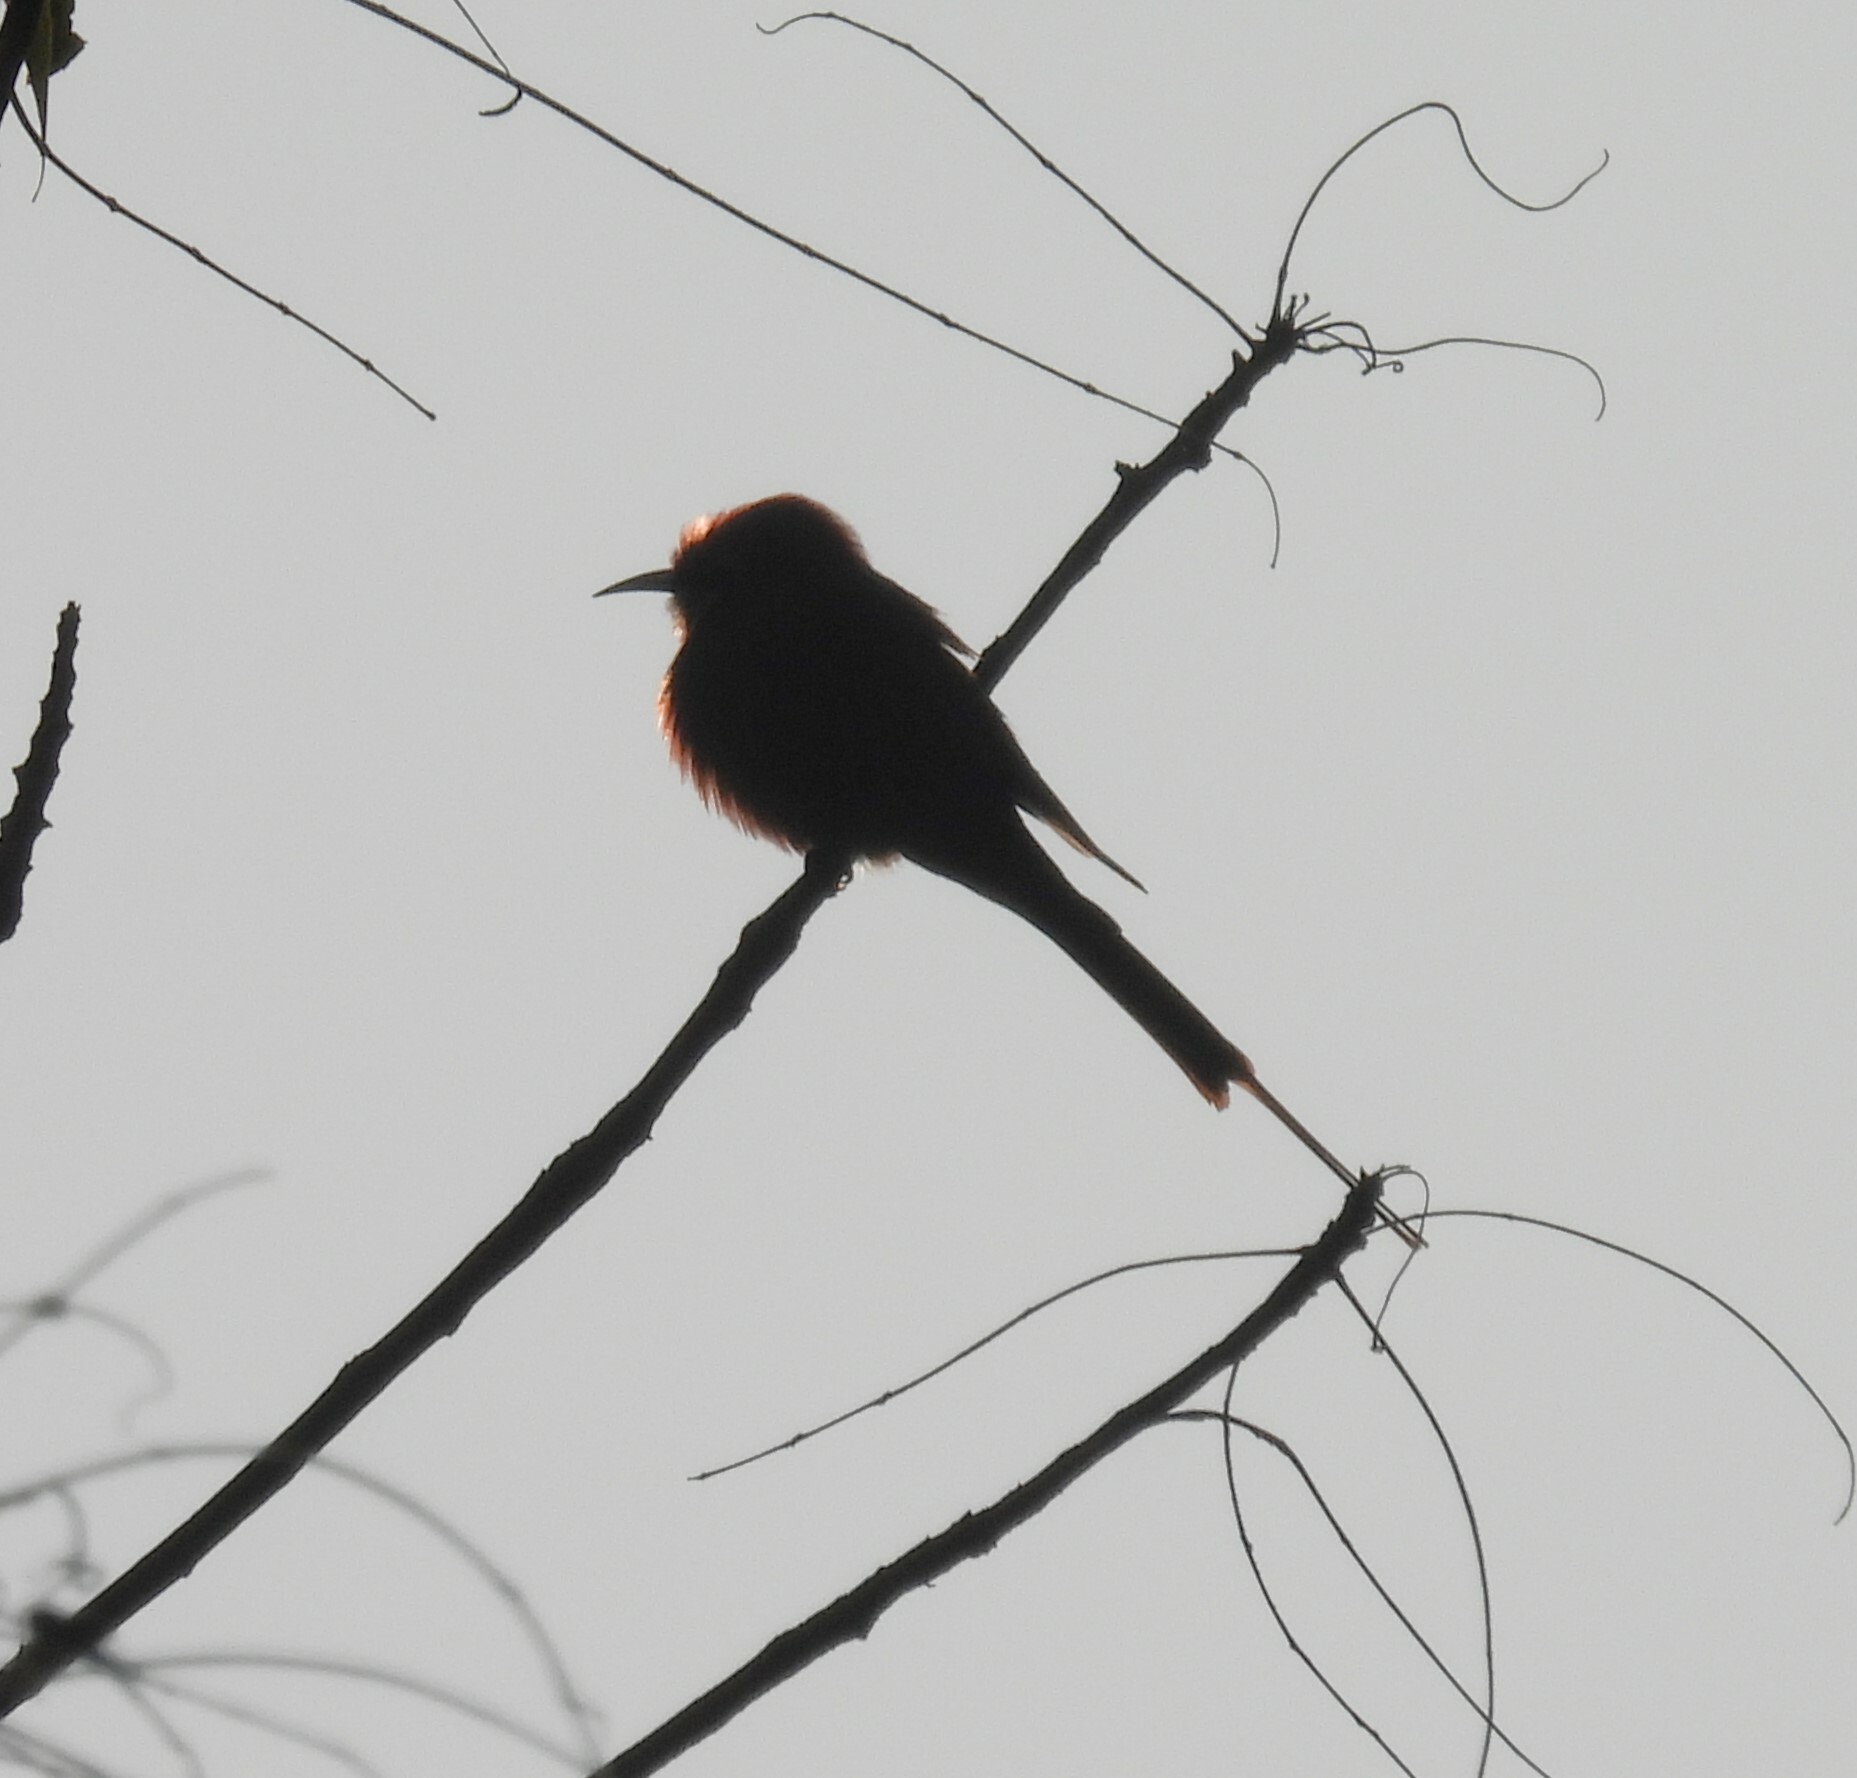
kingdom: Animalia
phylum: Chordata
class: Aves
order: Coraciiformes
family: Meropidae
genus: Merops
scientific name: Merops orientalis
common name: Green bee-eater
